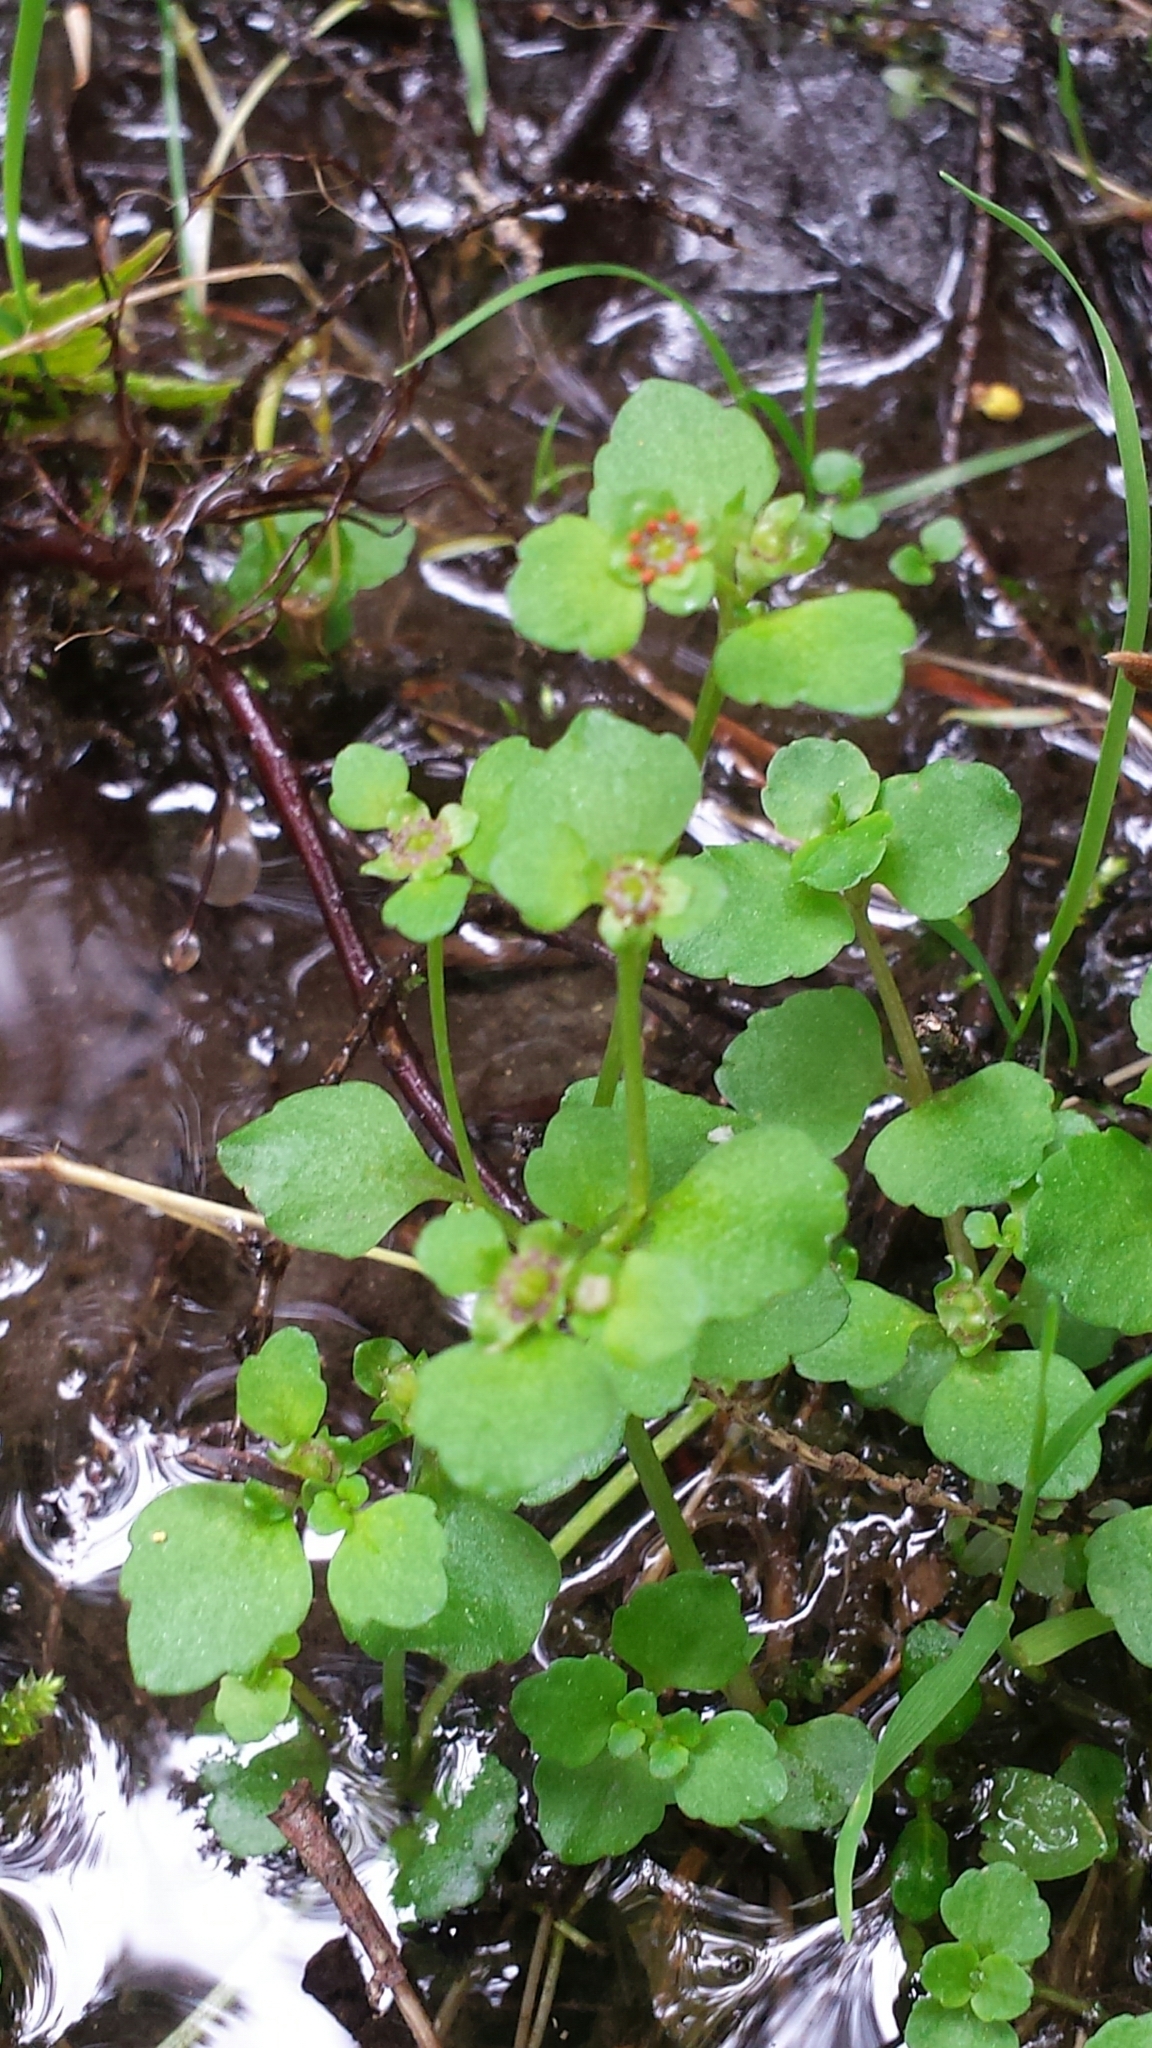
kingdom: Plantae
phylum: Tracheophyta
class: Magnoliopsida
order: Saxifragales
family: Saxifragaceae
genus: Chrysosplenium
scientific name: Chrysosplenium americanum
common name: American golden-saxifrage
